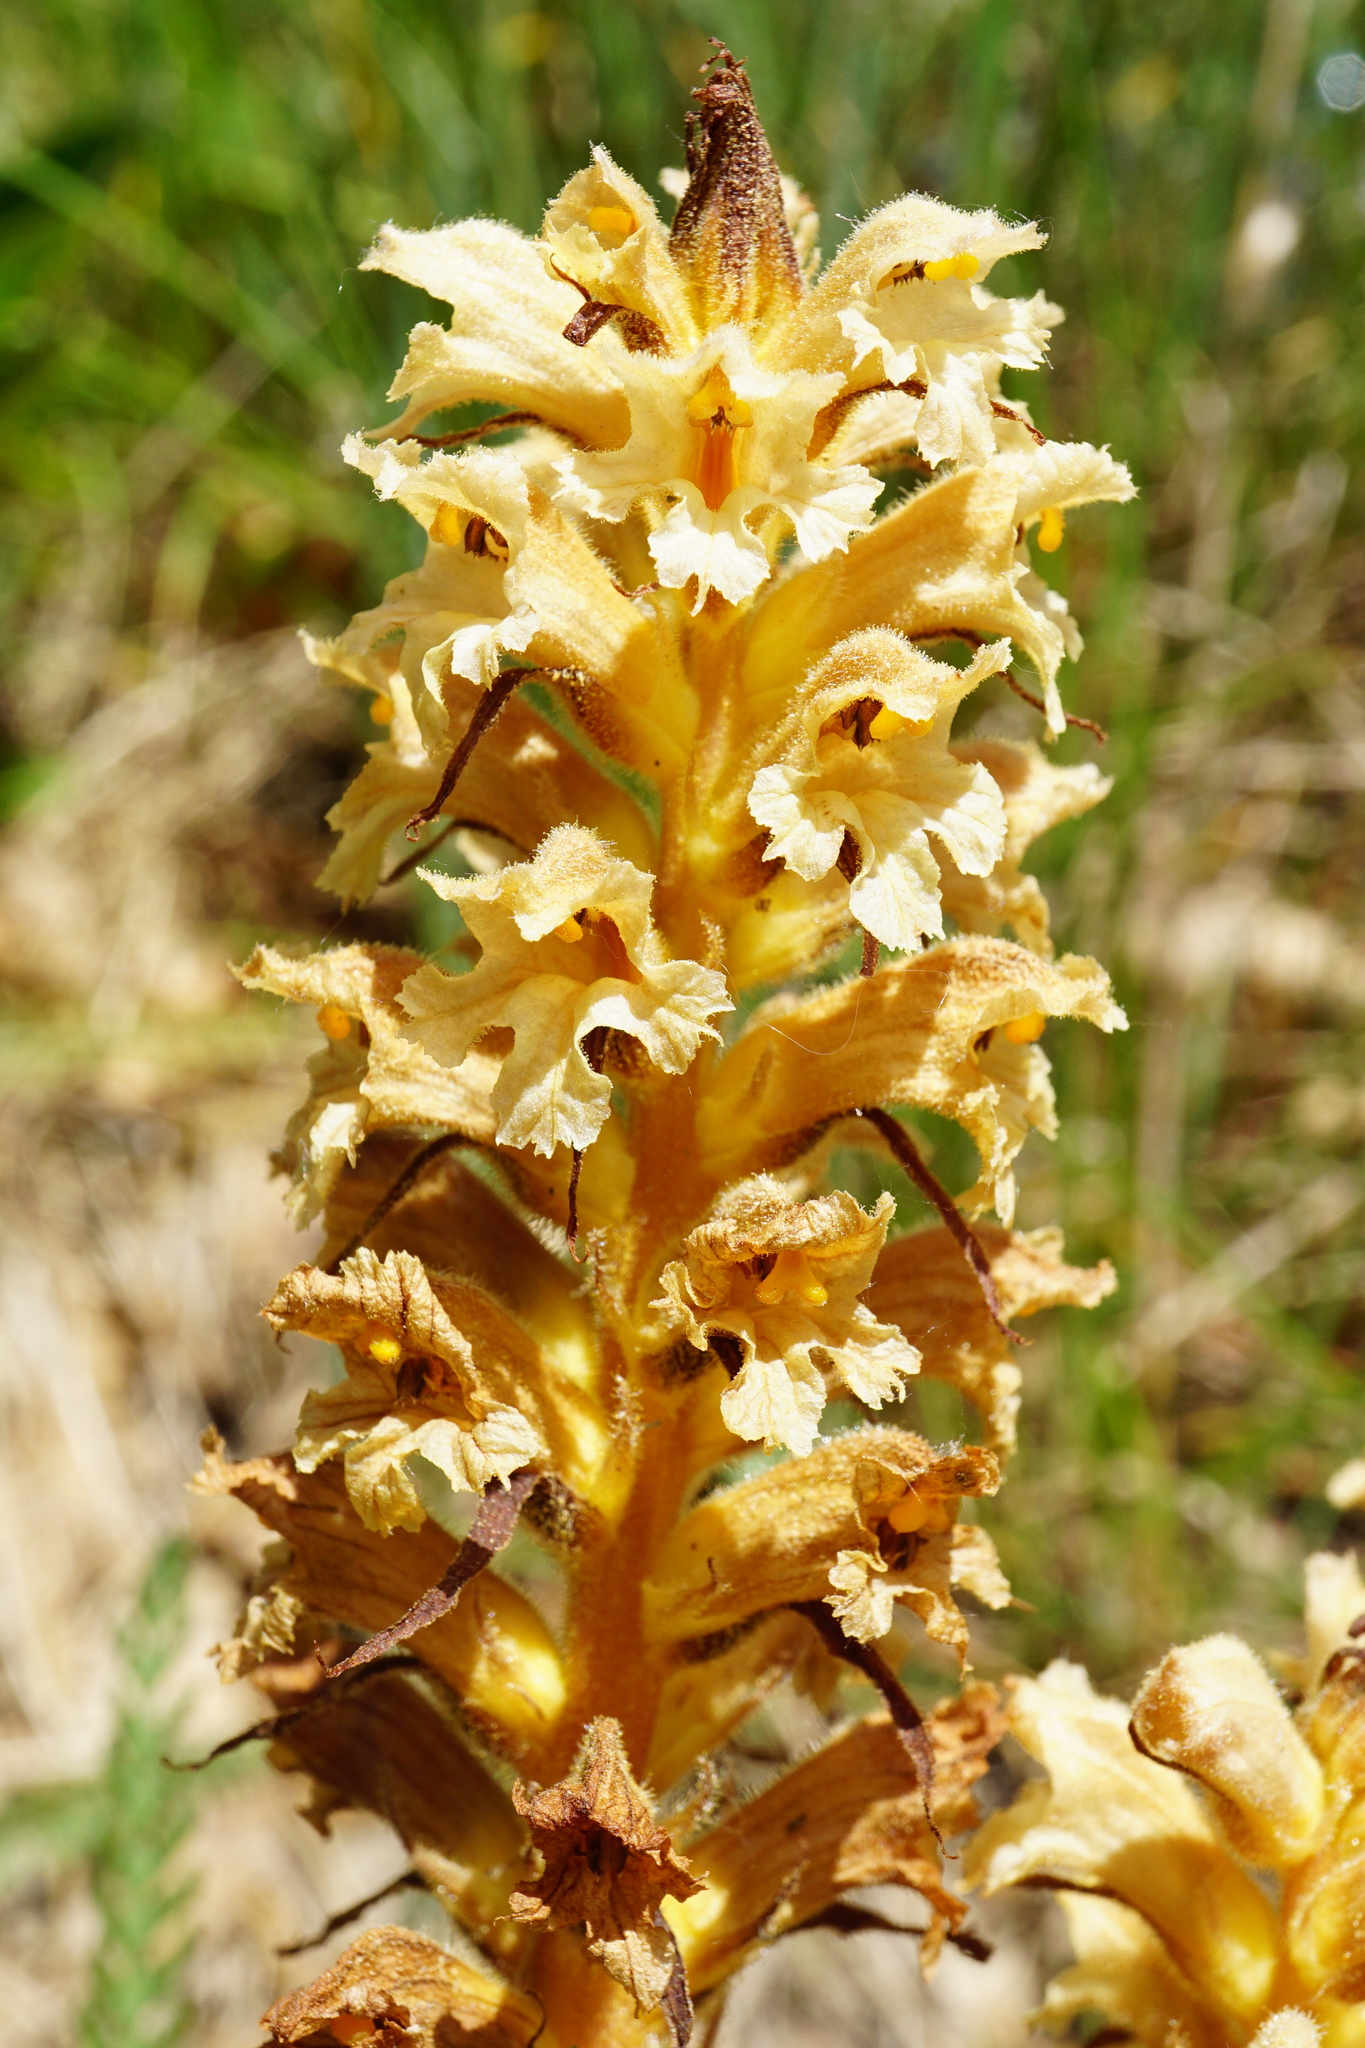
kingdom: Plantae
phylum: Tracheophyta
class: Magnoliopsida
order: Lamiales
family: Orobanchaceae
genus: Orobanche
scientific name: Orobanche lutea
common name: Yellow broomrape
